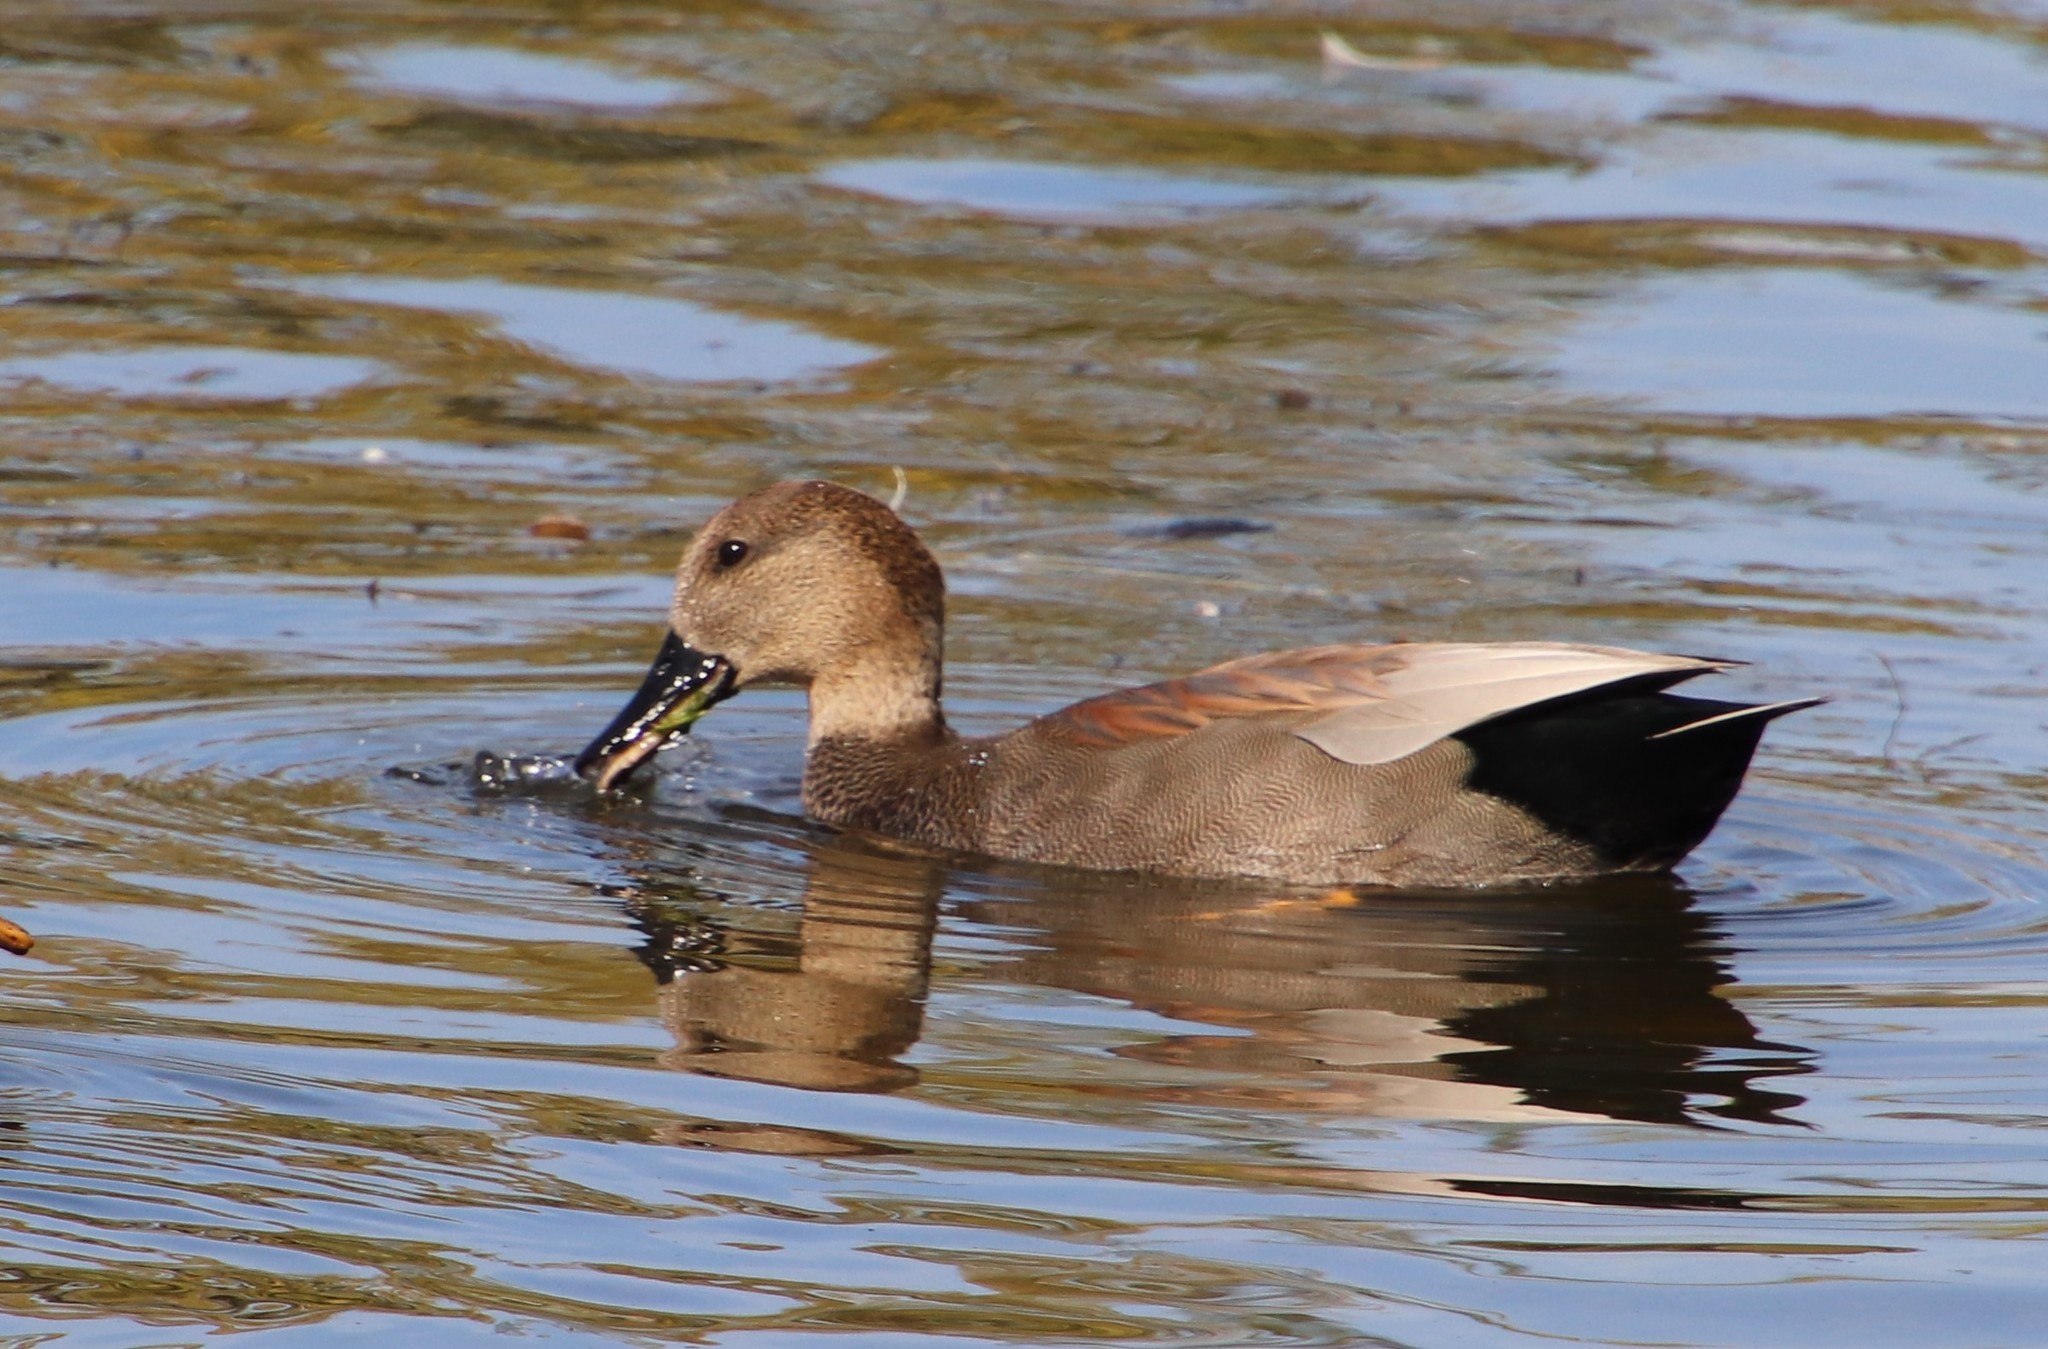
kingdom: Animalia
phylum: Chordata
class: Aves
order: Anseriformes
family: Anatidae
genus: Mareca
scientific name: Mareca strepera
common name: Gadwall
